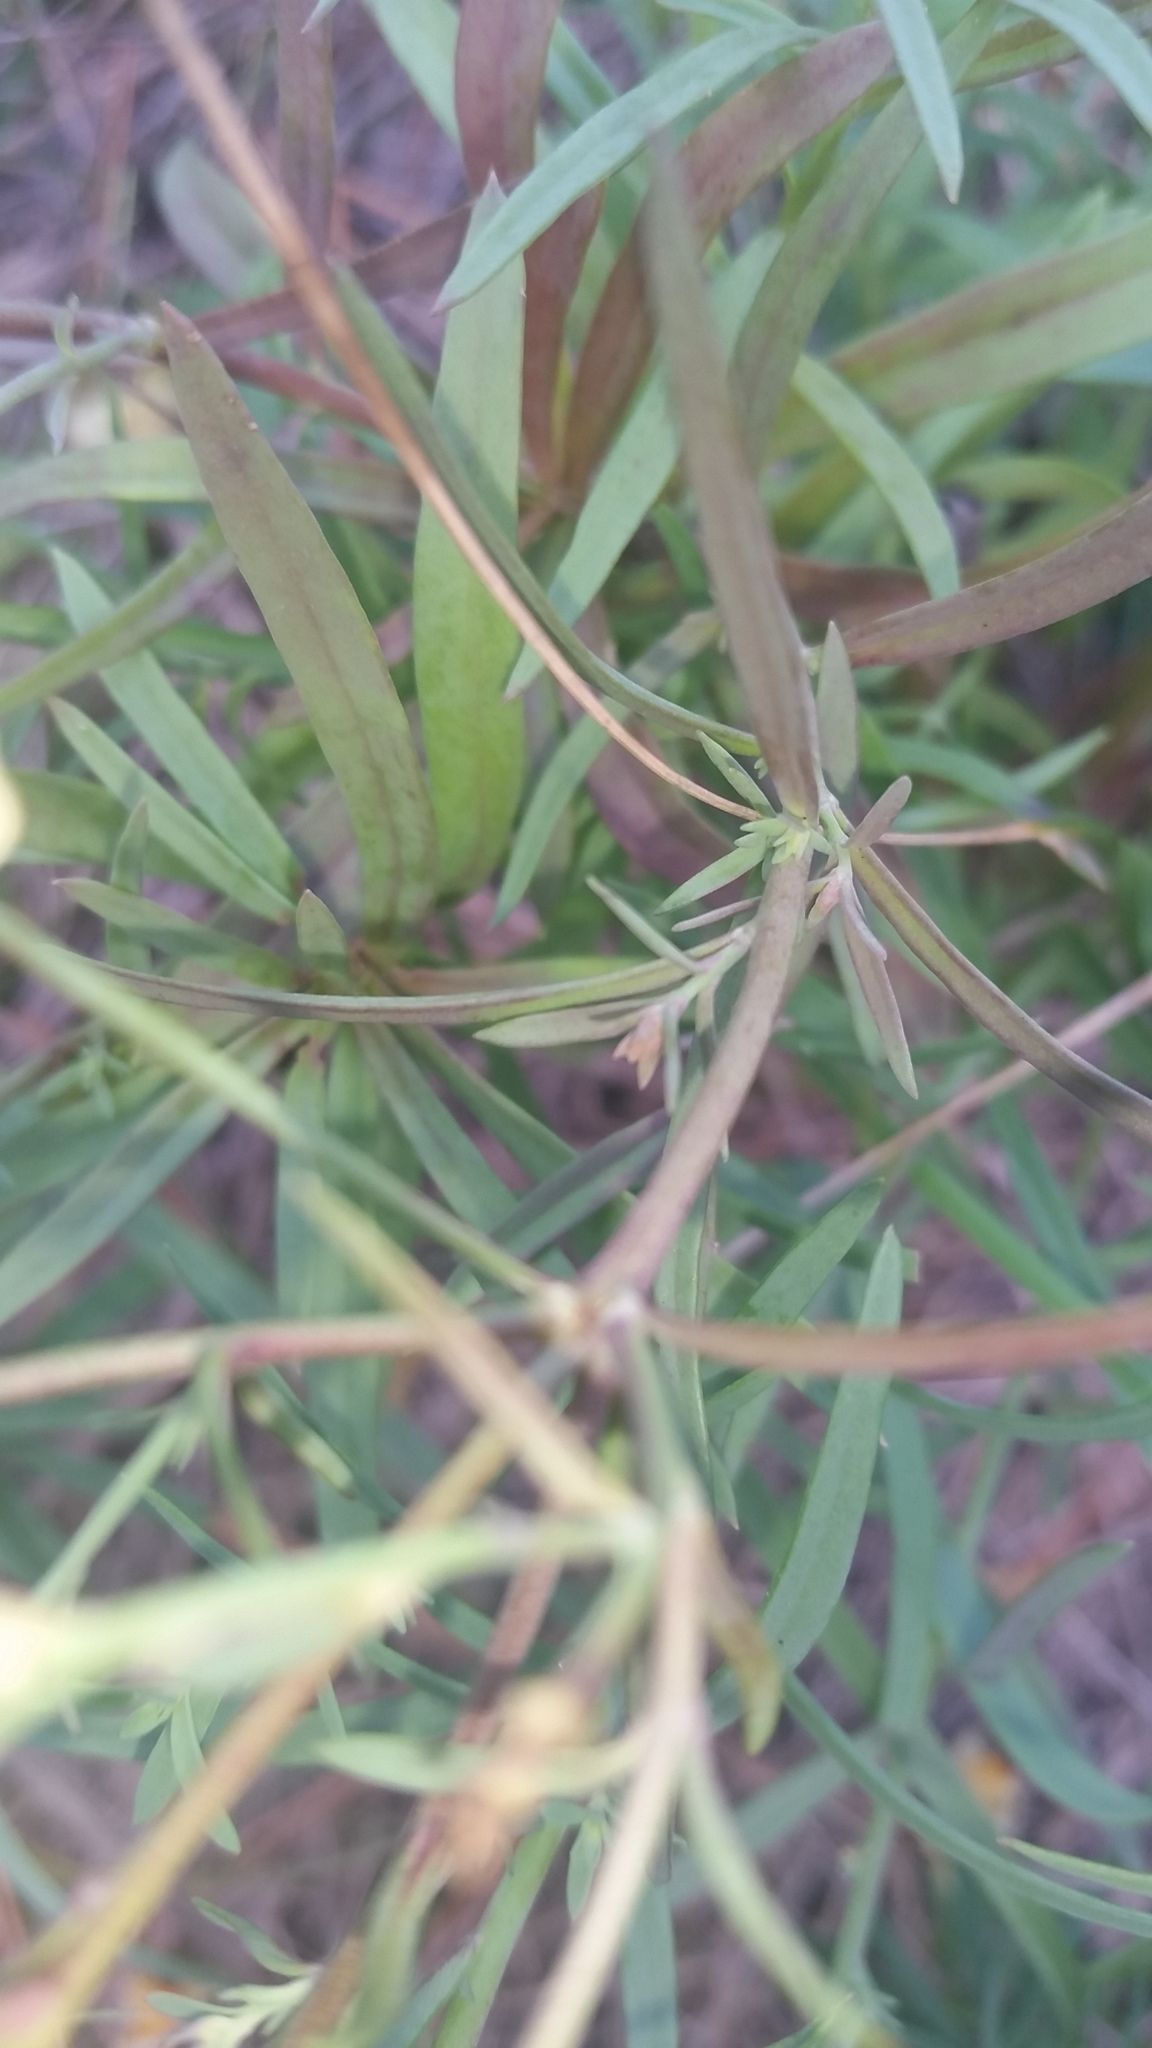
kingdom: Plantae
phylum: Tracheophyta
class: Magnoliopsida
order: Lamiales
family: Plantaginaceae
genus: Linaria
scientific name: Linaria vulgaris
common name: Butter and eggs
